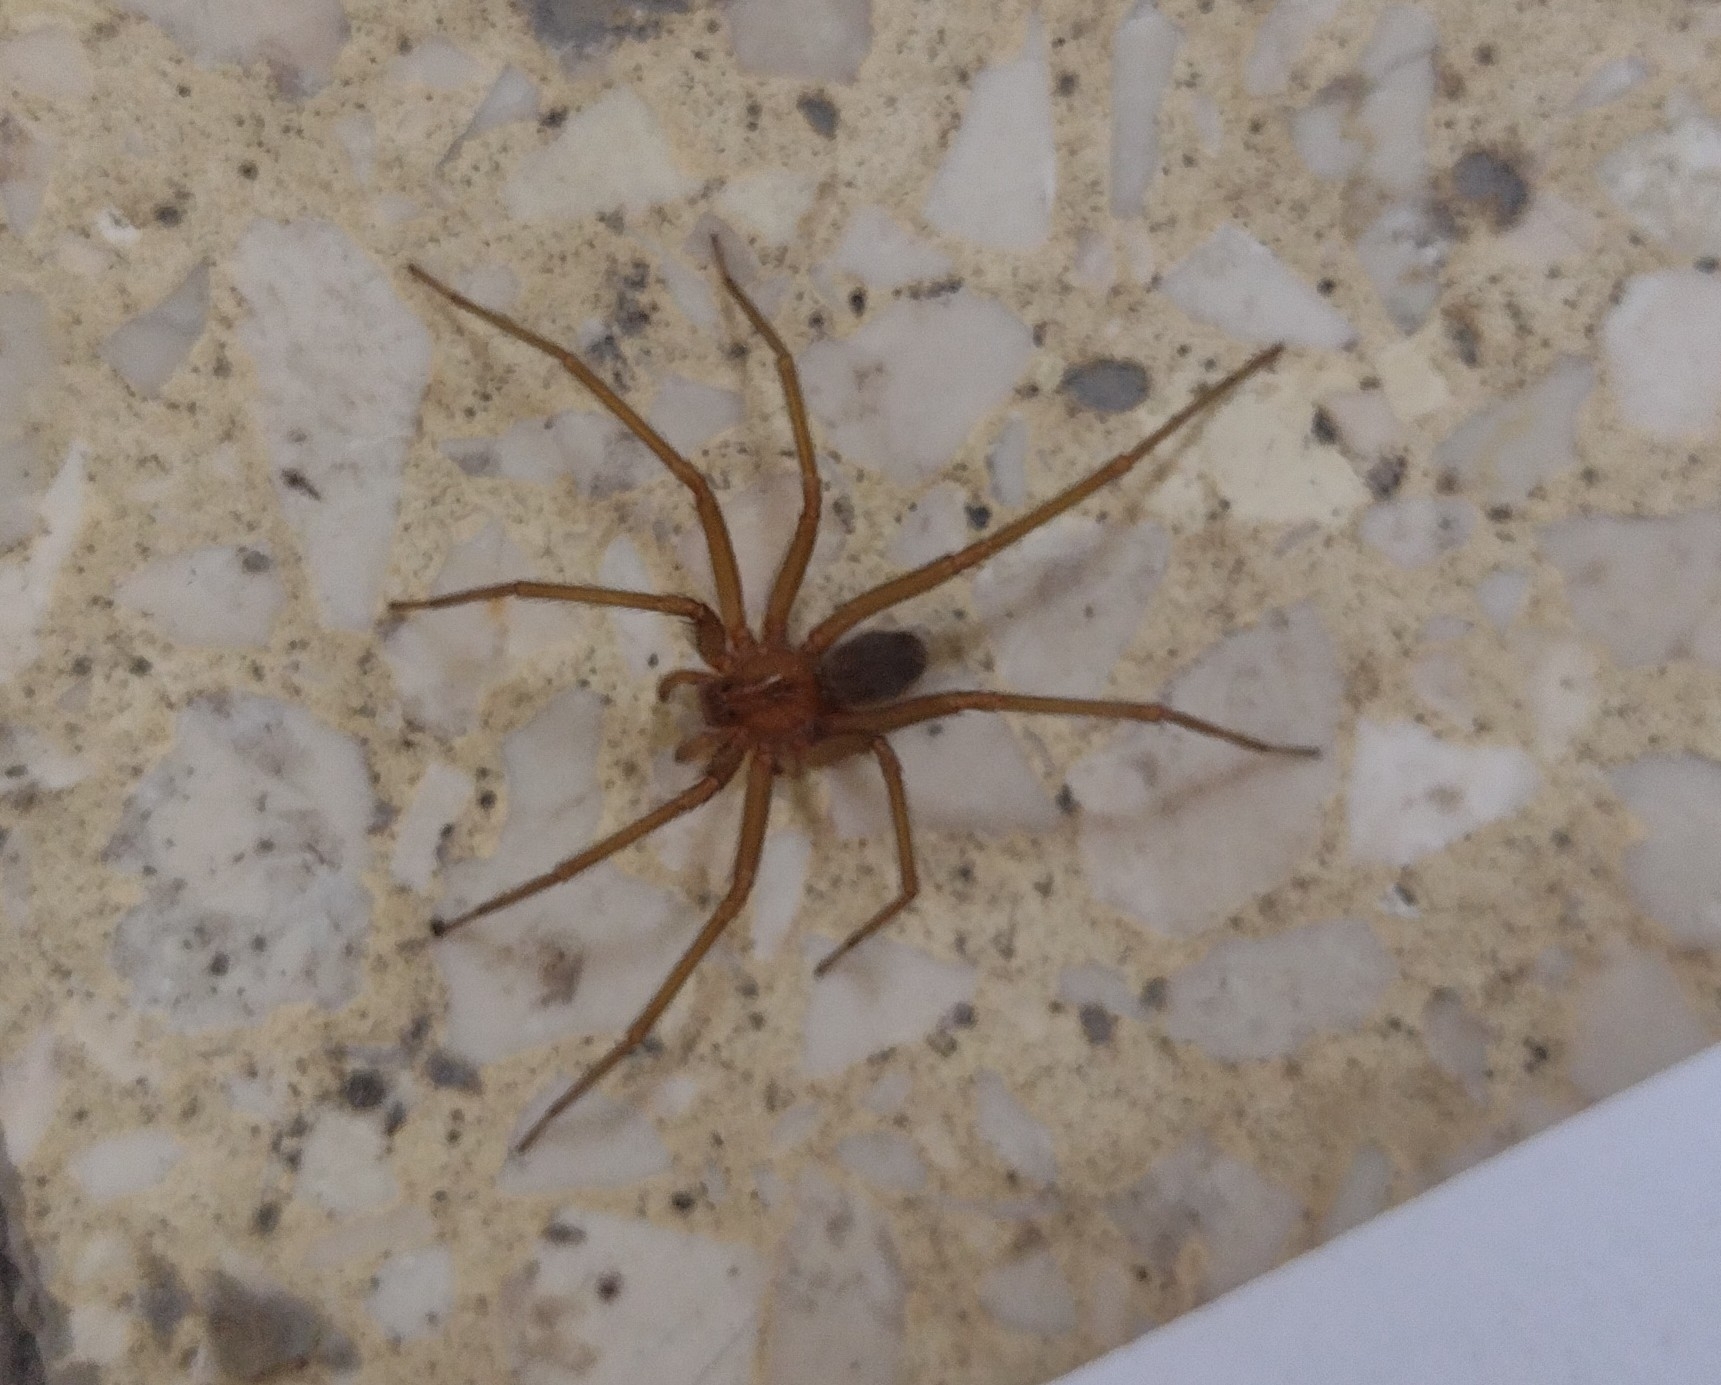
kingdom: Animalia
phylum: Arthropoda
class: Arachnida
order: Araneae
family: Sicariidae
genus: Loxosceles
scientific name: Loxosceles laeta
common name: Chilean recluse spider
